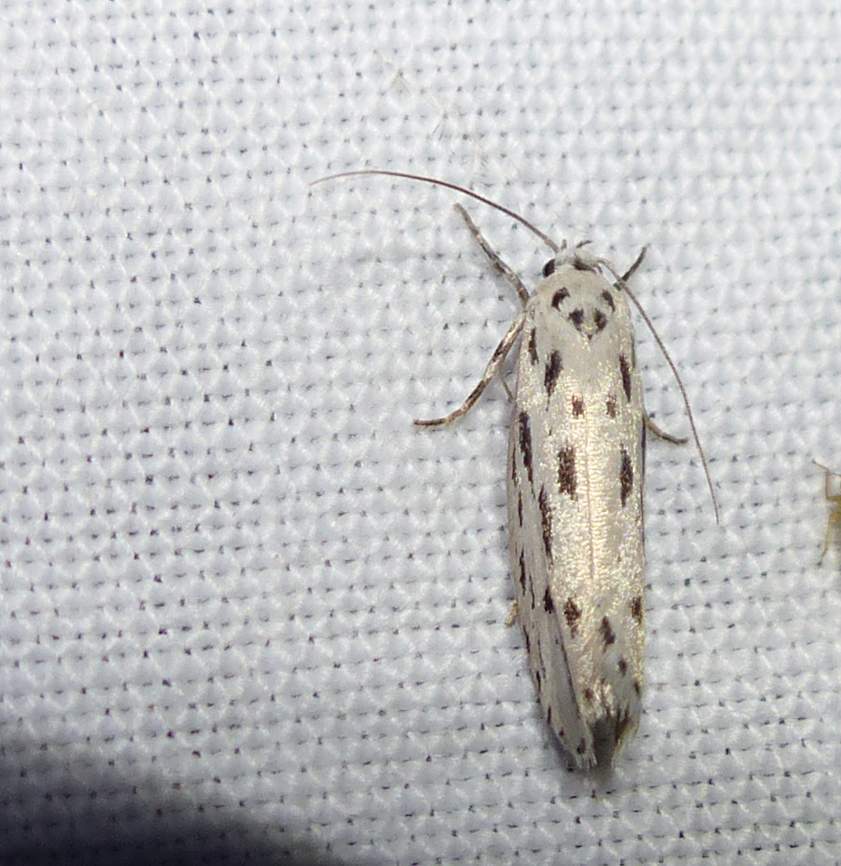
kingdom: Animalia
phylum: Arthropoda
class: Insecta
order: Lepidoptera
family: Ethmiidae
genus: Ethmia
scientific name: Ethmia longimaculella
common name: Streaked ethmia moth
